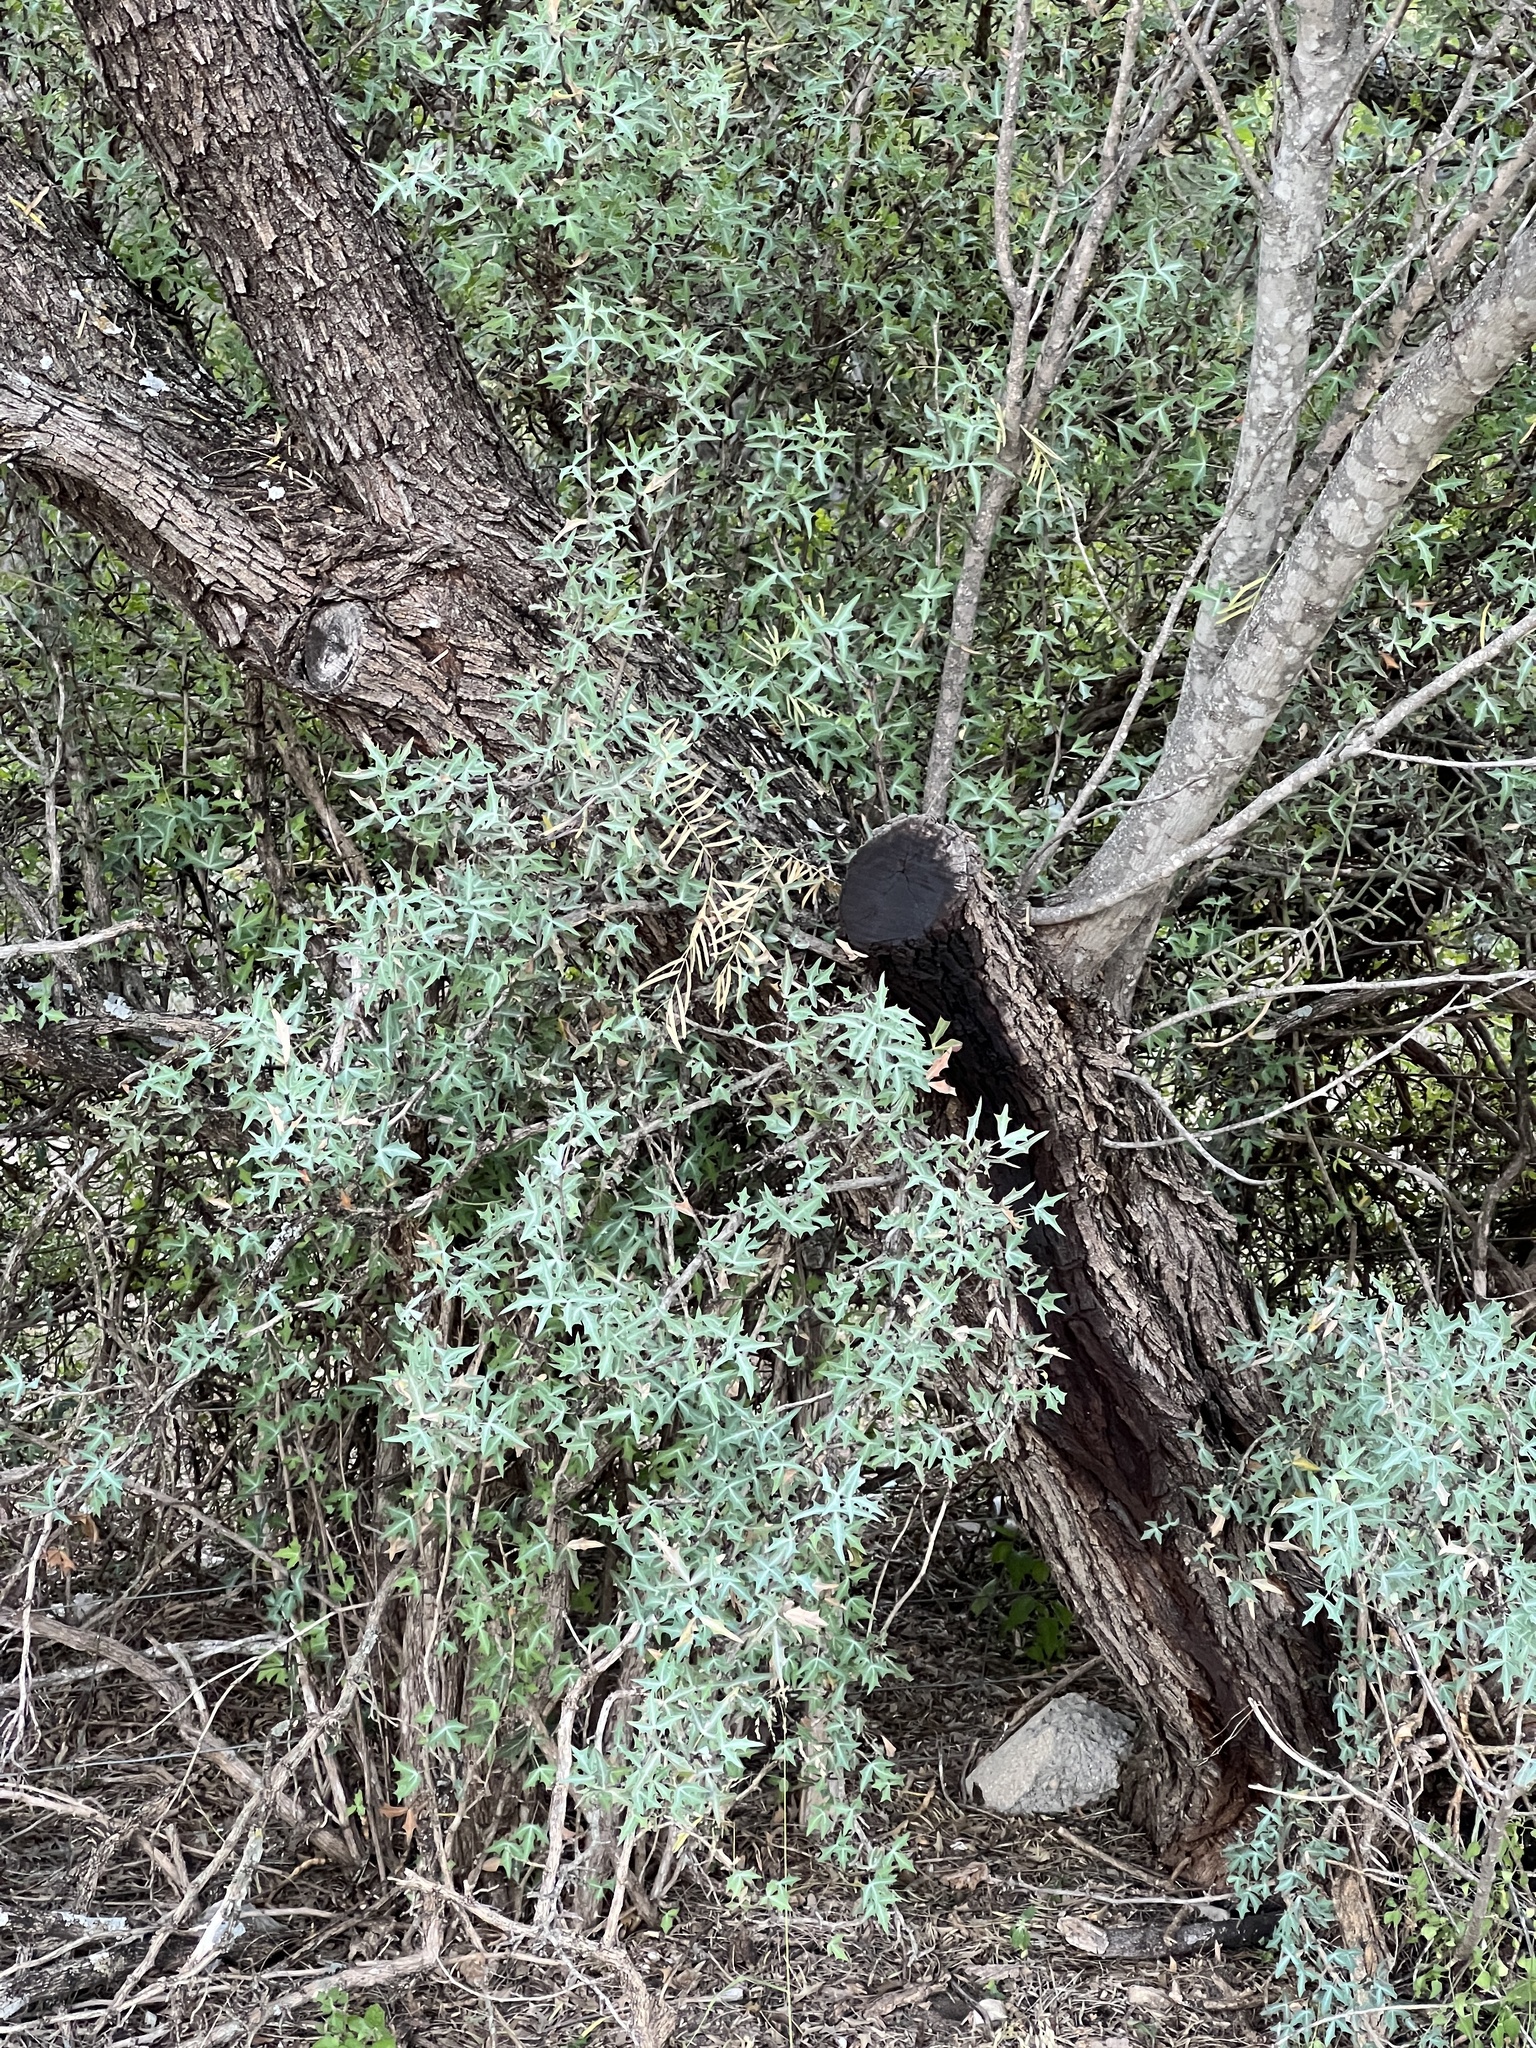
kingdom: Plantae
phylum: Tracheophyta
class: Magnoliopsida
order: Ranunculales
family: Berberidaceae
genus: Alloberberis
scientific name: Alloberberis trifoliolata
